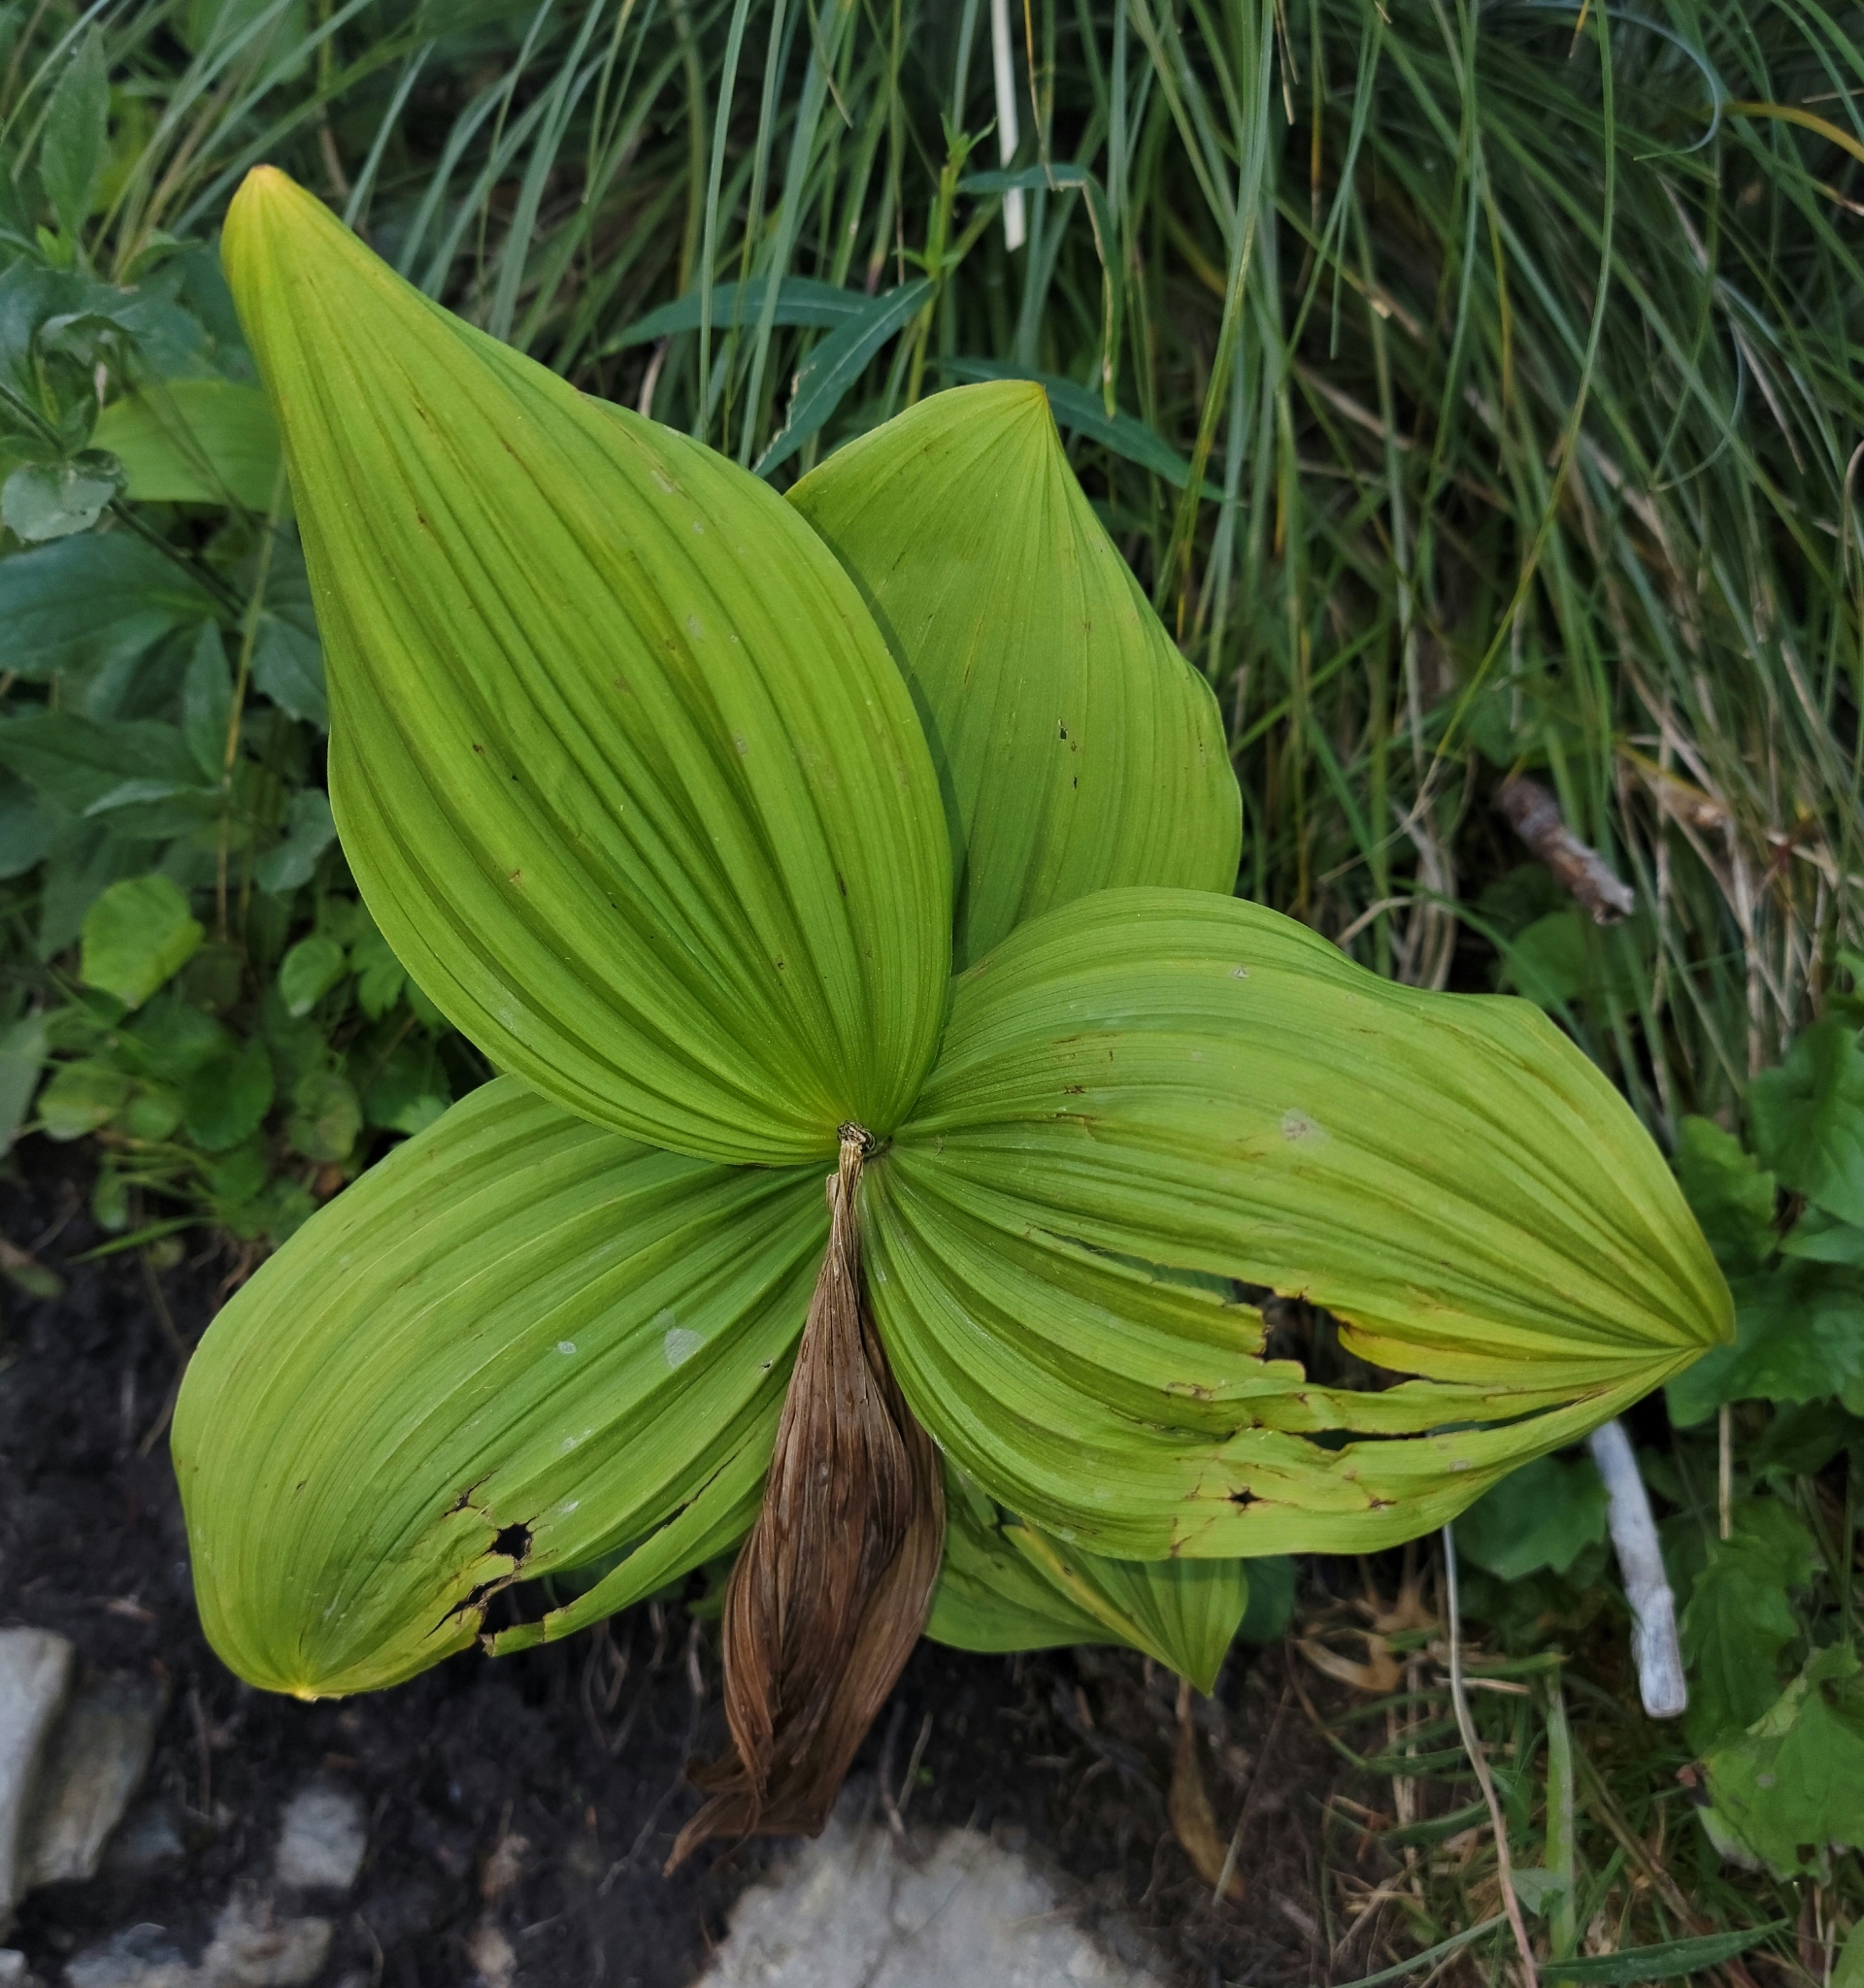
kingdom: Plantae
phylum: Tracheophyta
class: Liliopsida
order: Liliales
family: Melanthiaceae
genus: Veratrum
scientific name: Veratrum viride
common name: American false hellebore
